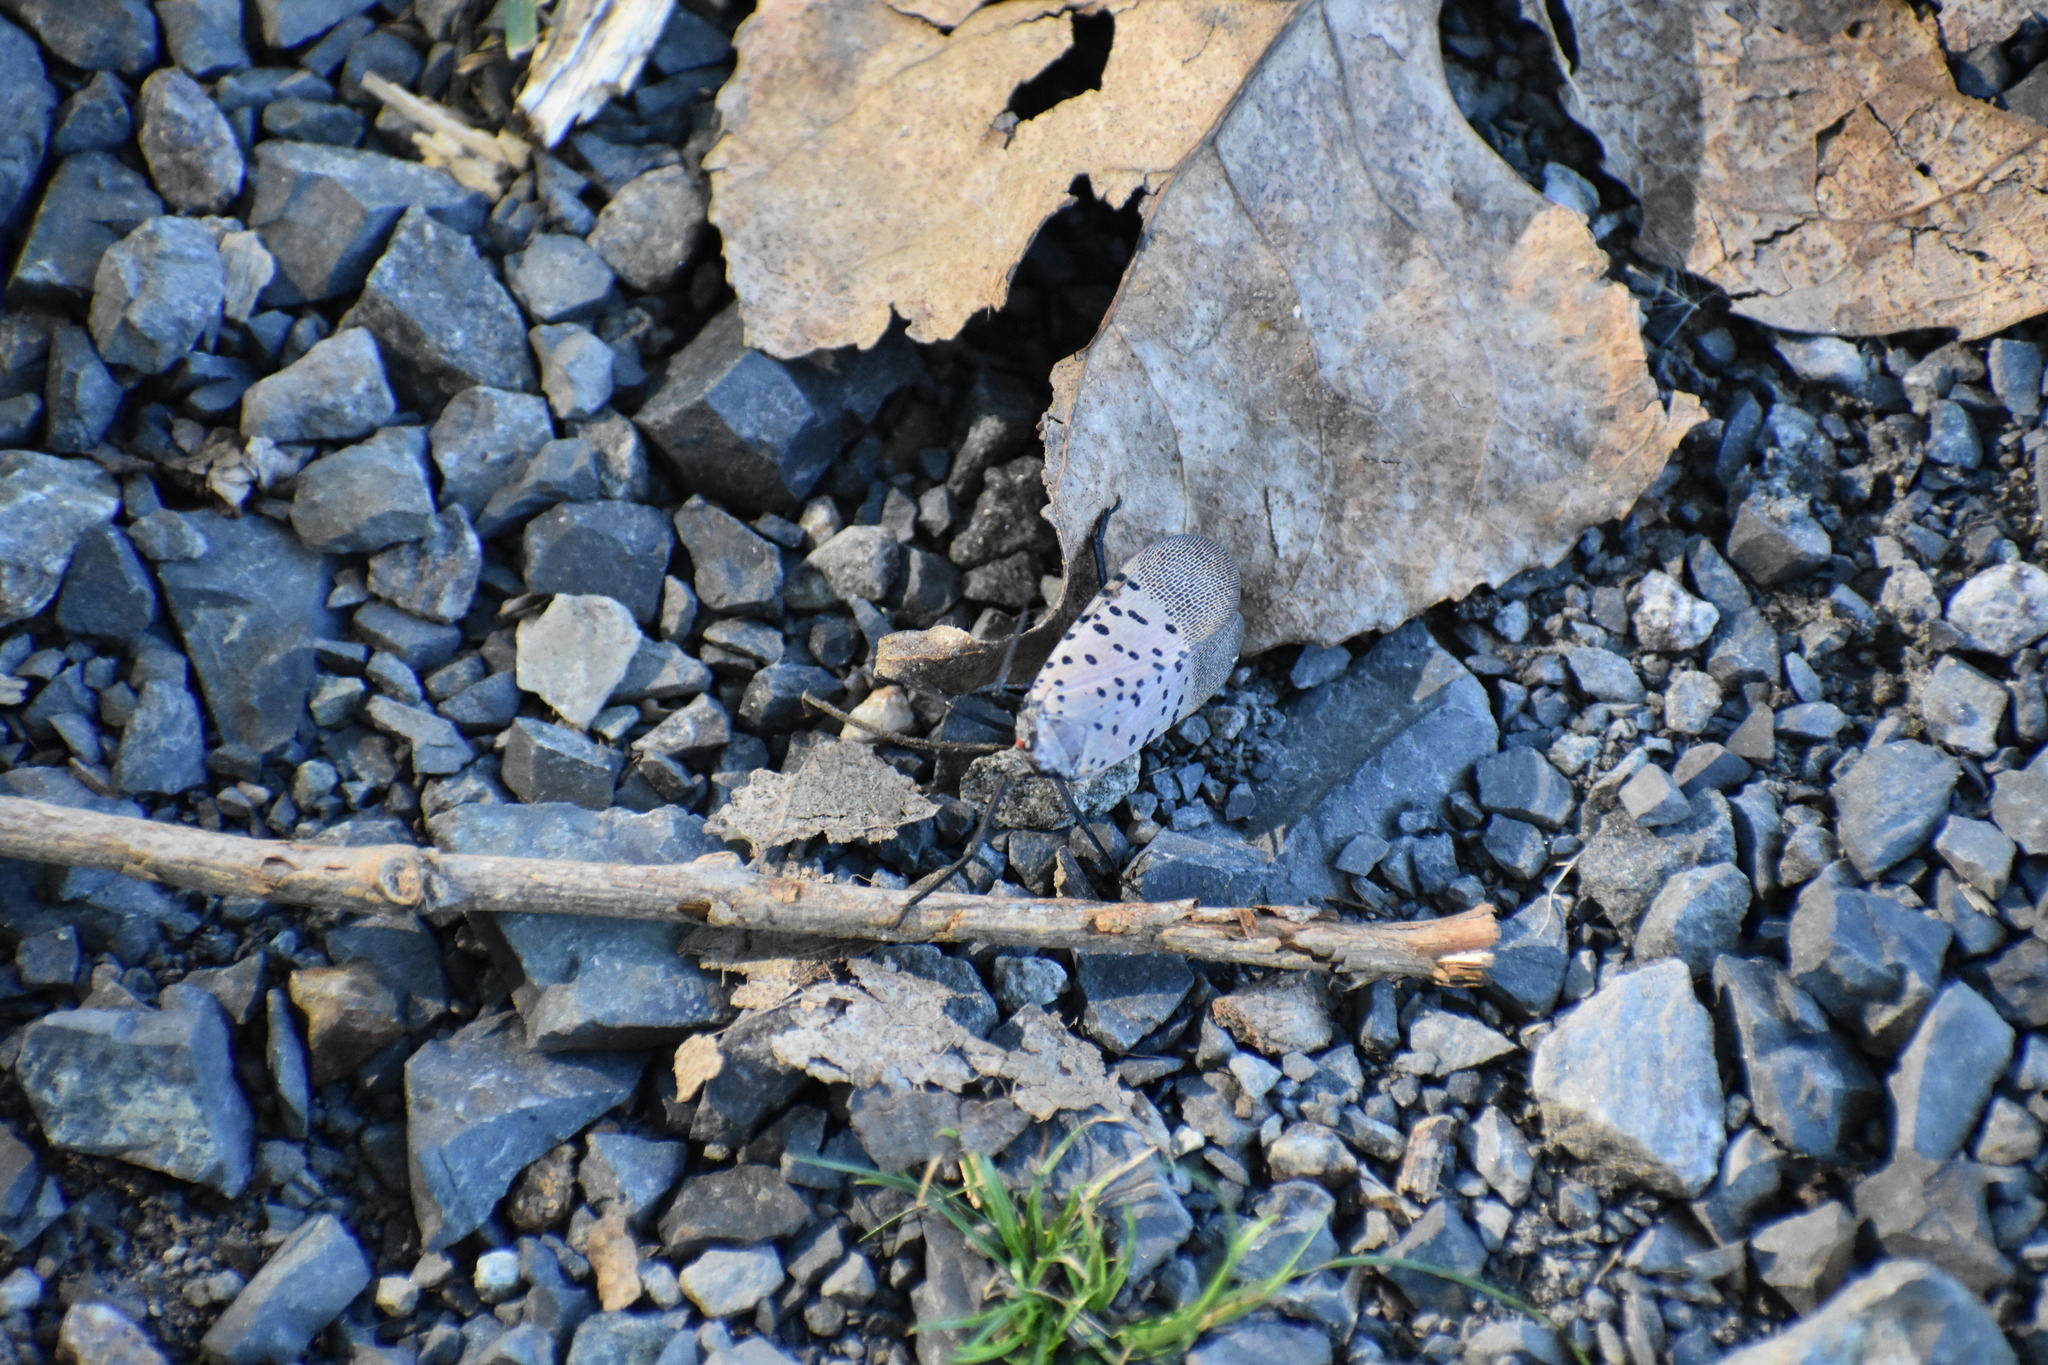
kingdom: Animalia
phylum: Arthropoda
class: Insecta
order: Hemiptera
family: Fulgoridae
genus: Lycorma
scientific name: Lycorma delicatula
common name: Spotted lanternfly
